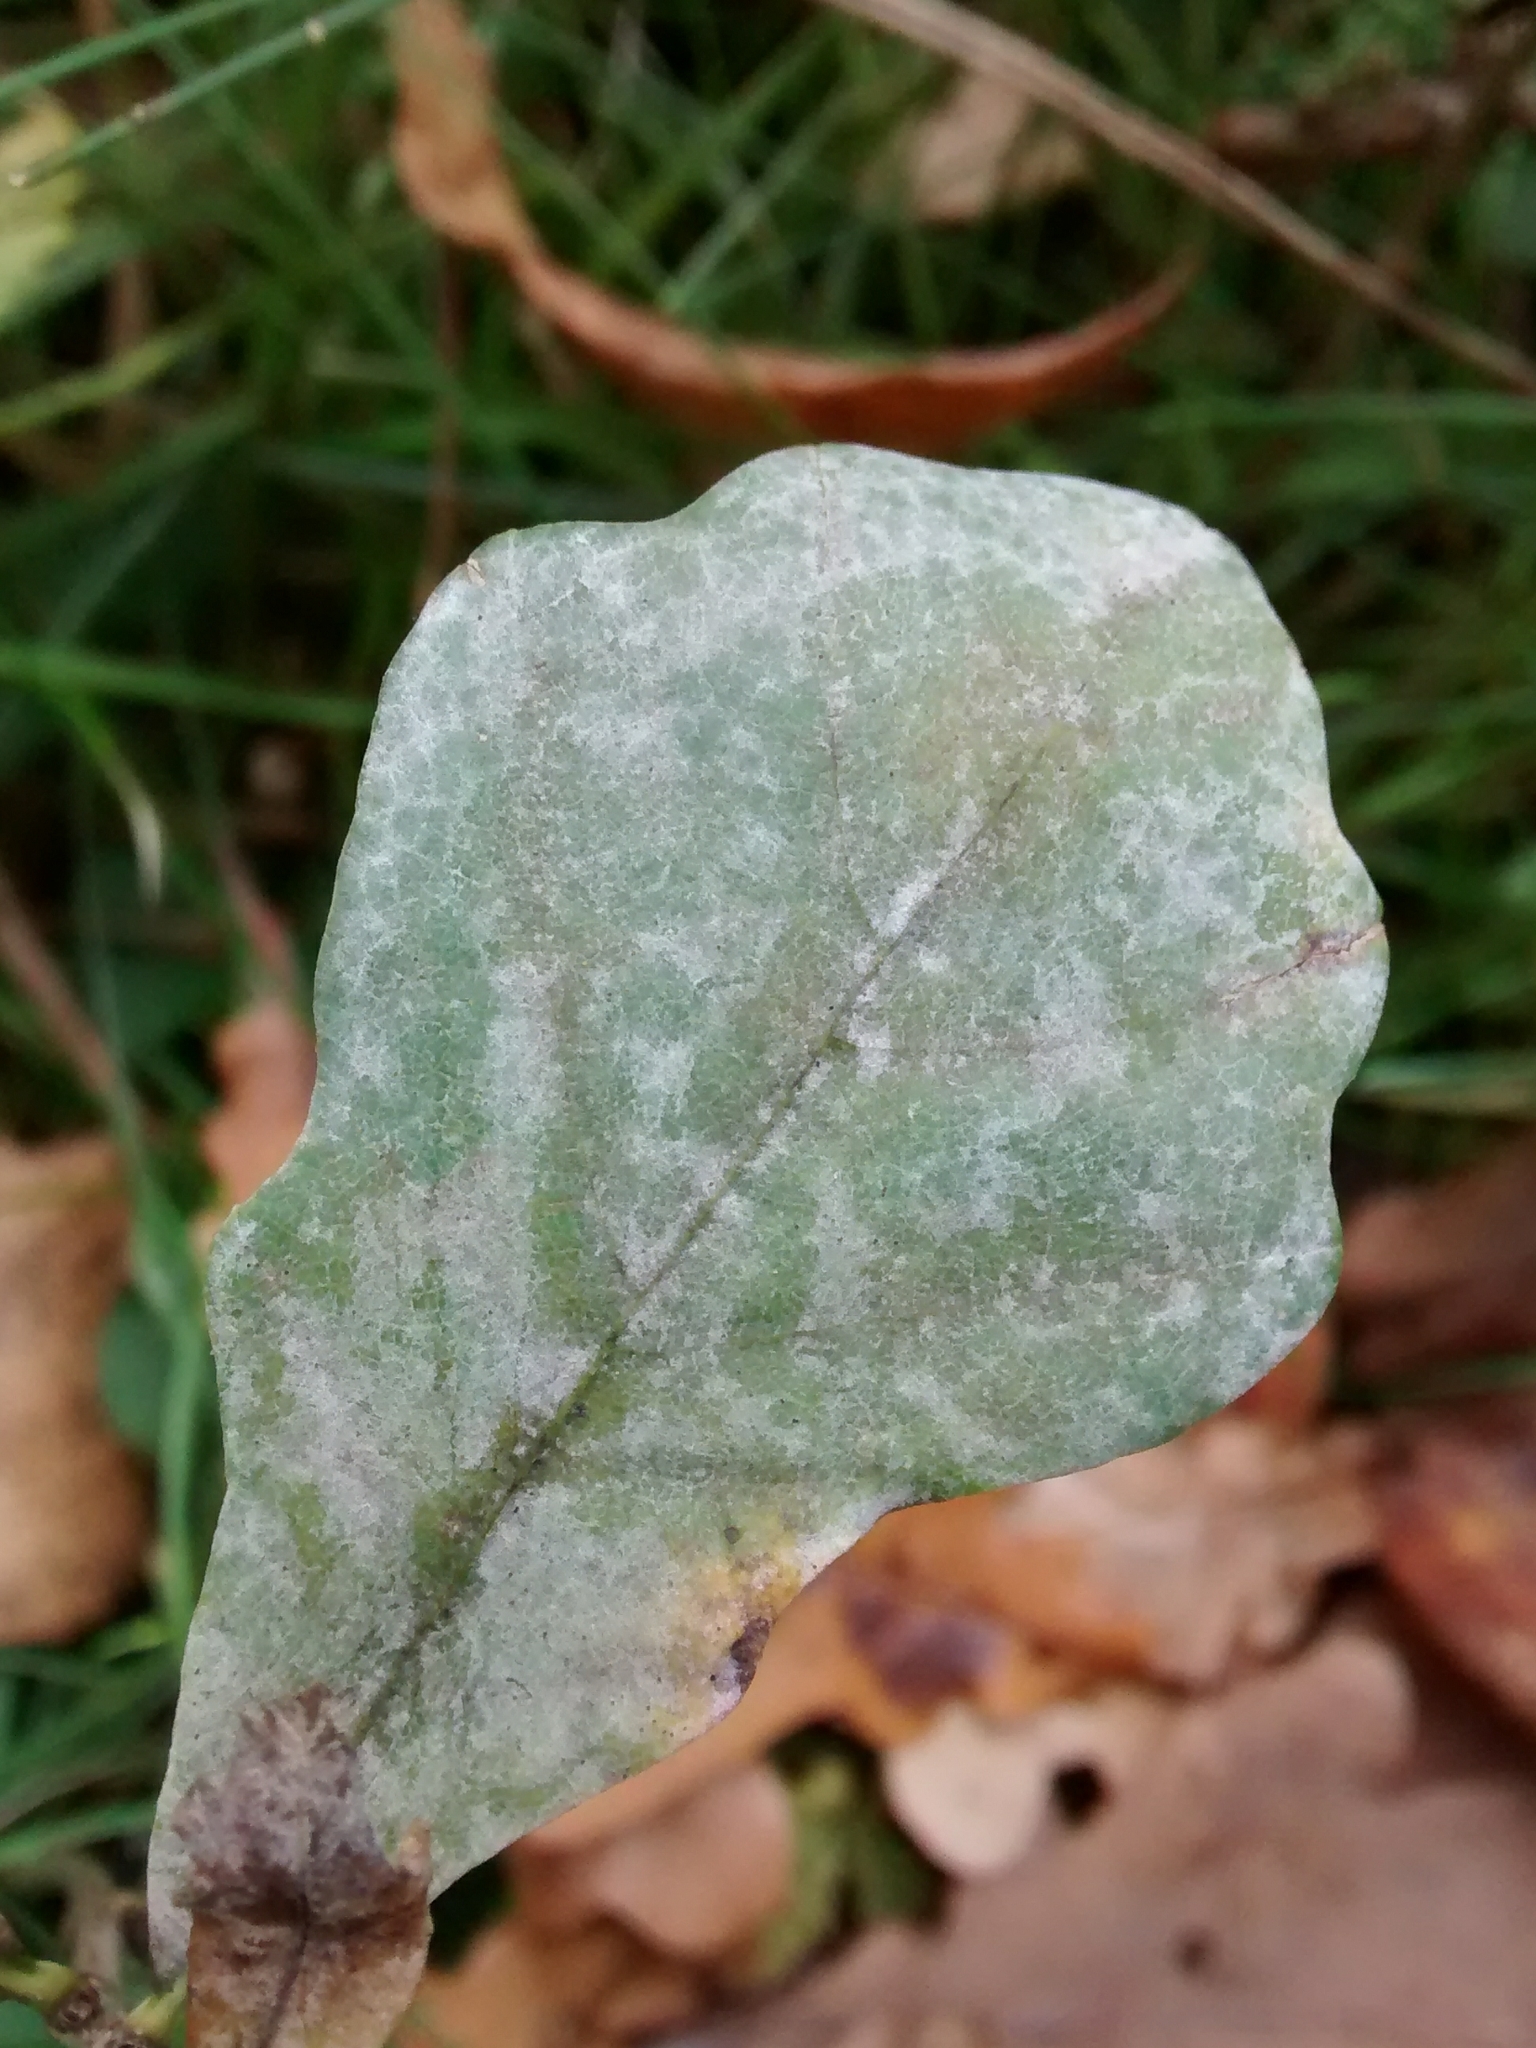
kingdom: Fungi
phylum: Ascomycota
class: Leotiomycetes
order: Helotiales
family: Erysiphaceae
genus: Erysiphe
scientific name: Erysiphe
